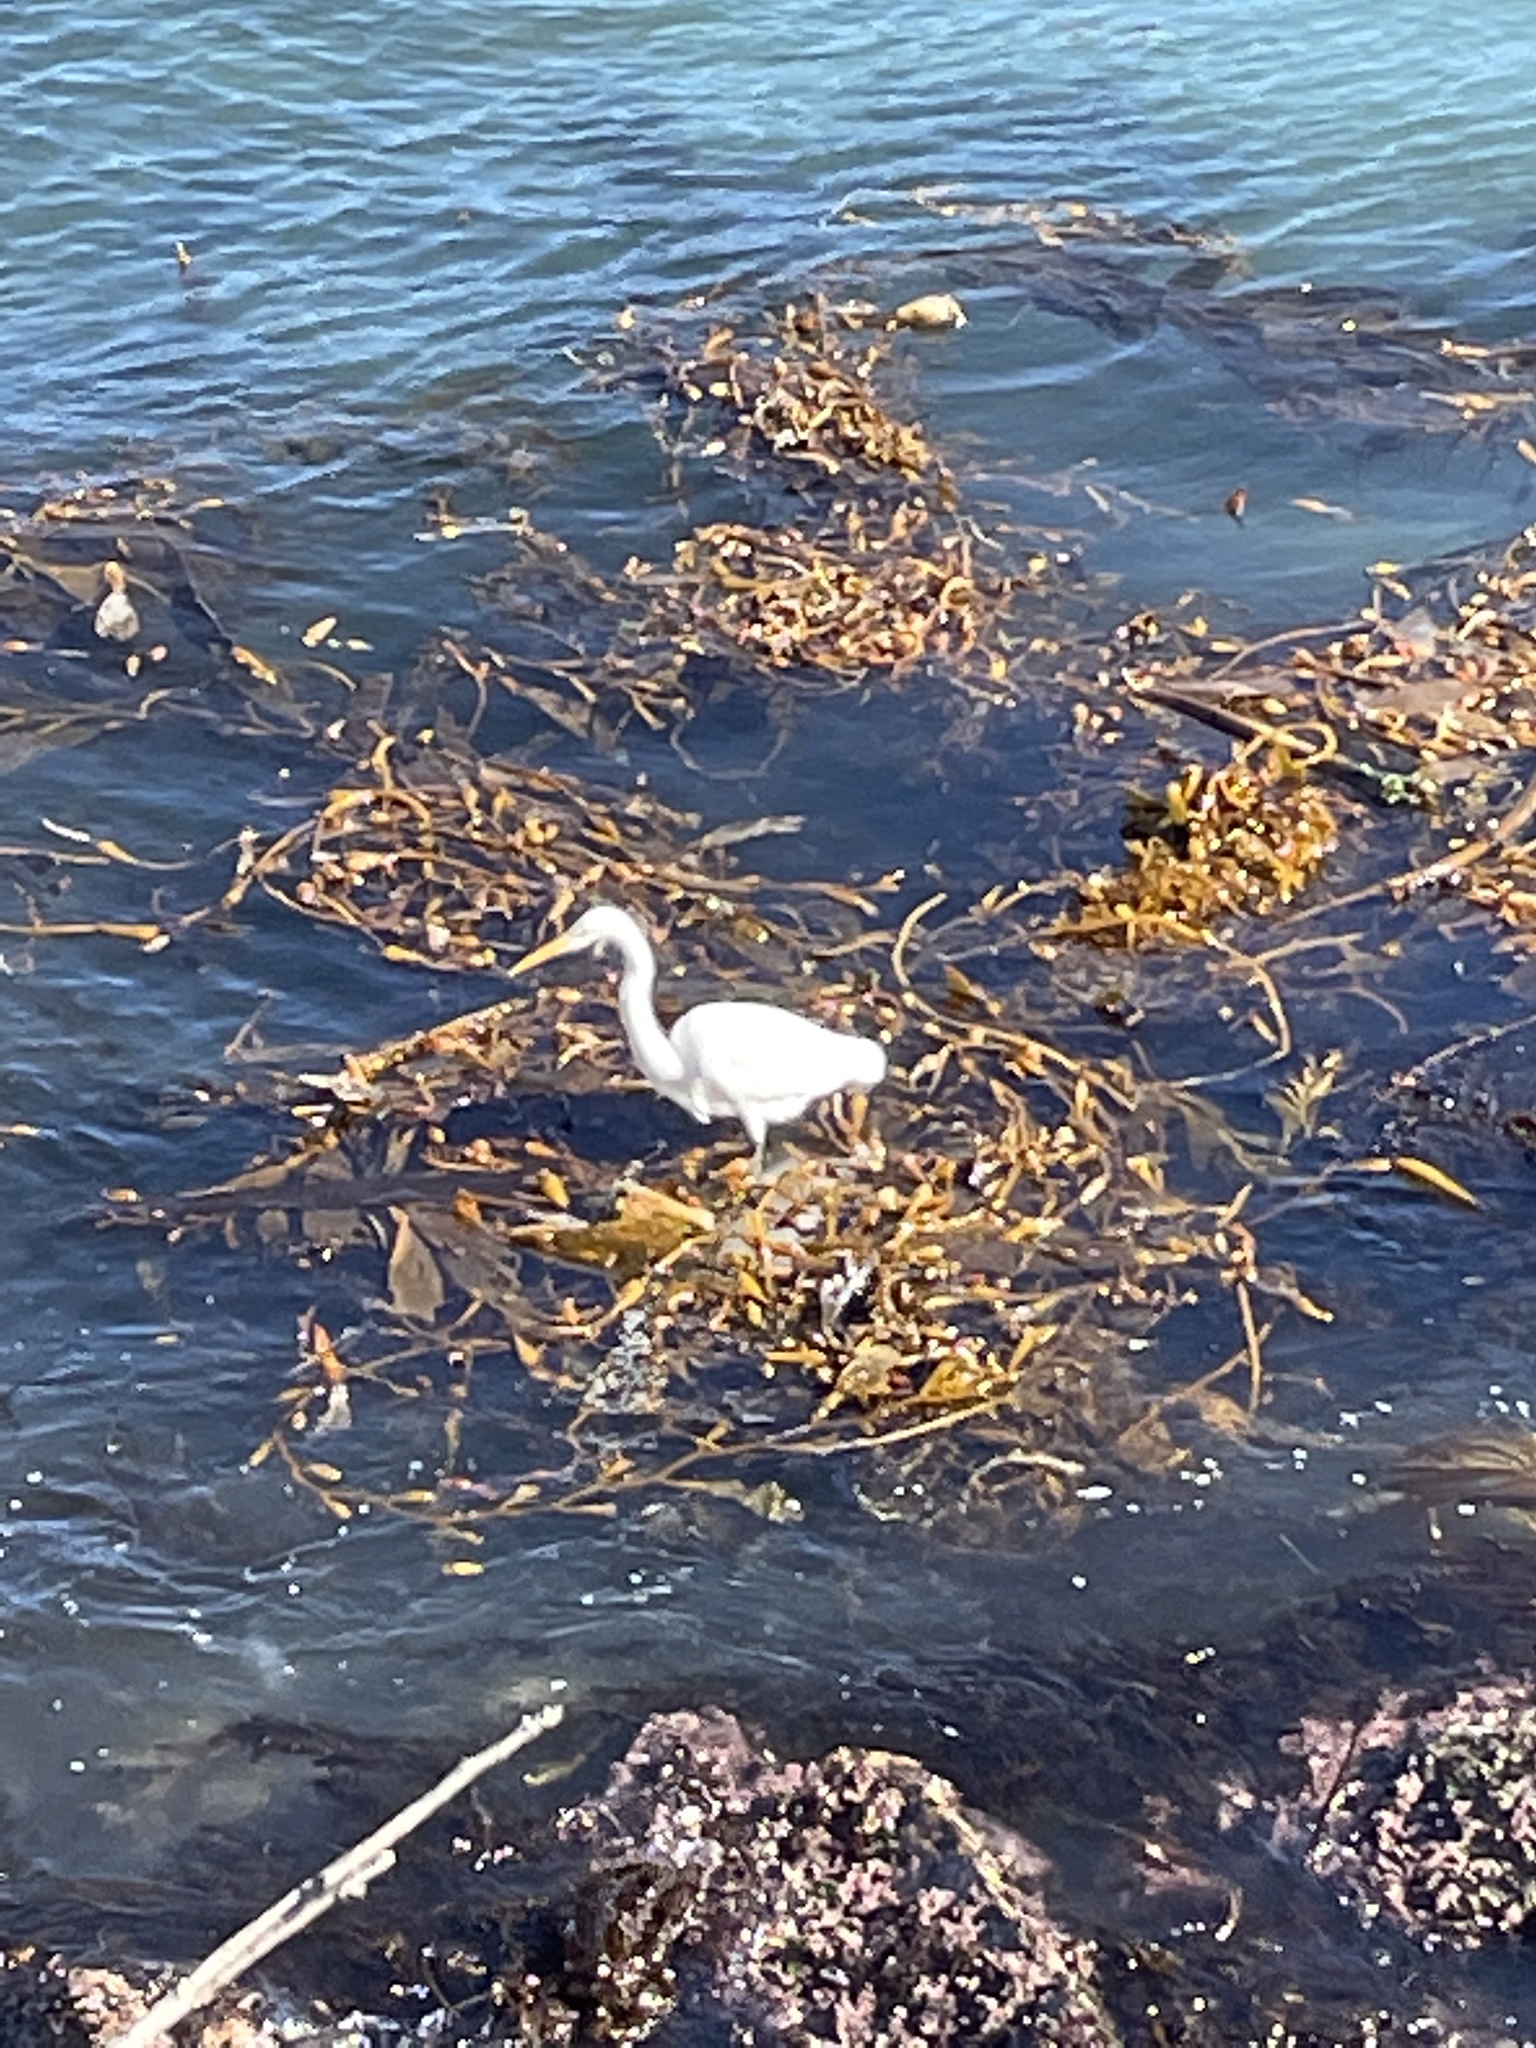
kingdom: Animalia
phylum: Chordata
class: Aves
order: Pelecaniformes
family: Ardeidae
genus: Ardea
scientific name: Ardea alba
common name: Great egret
